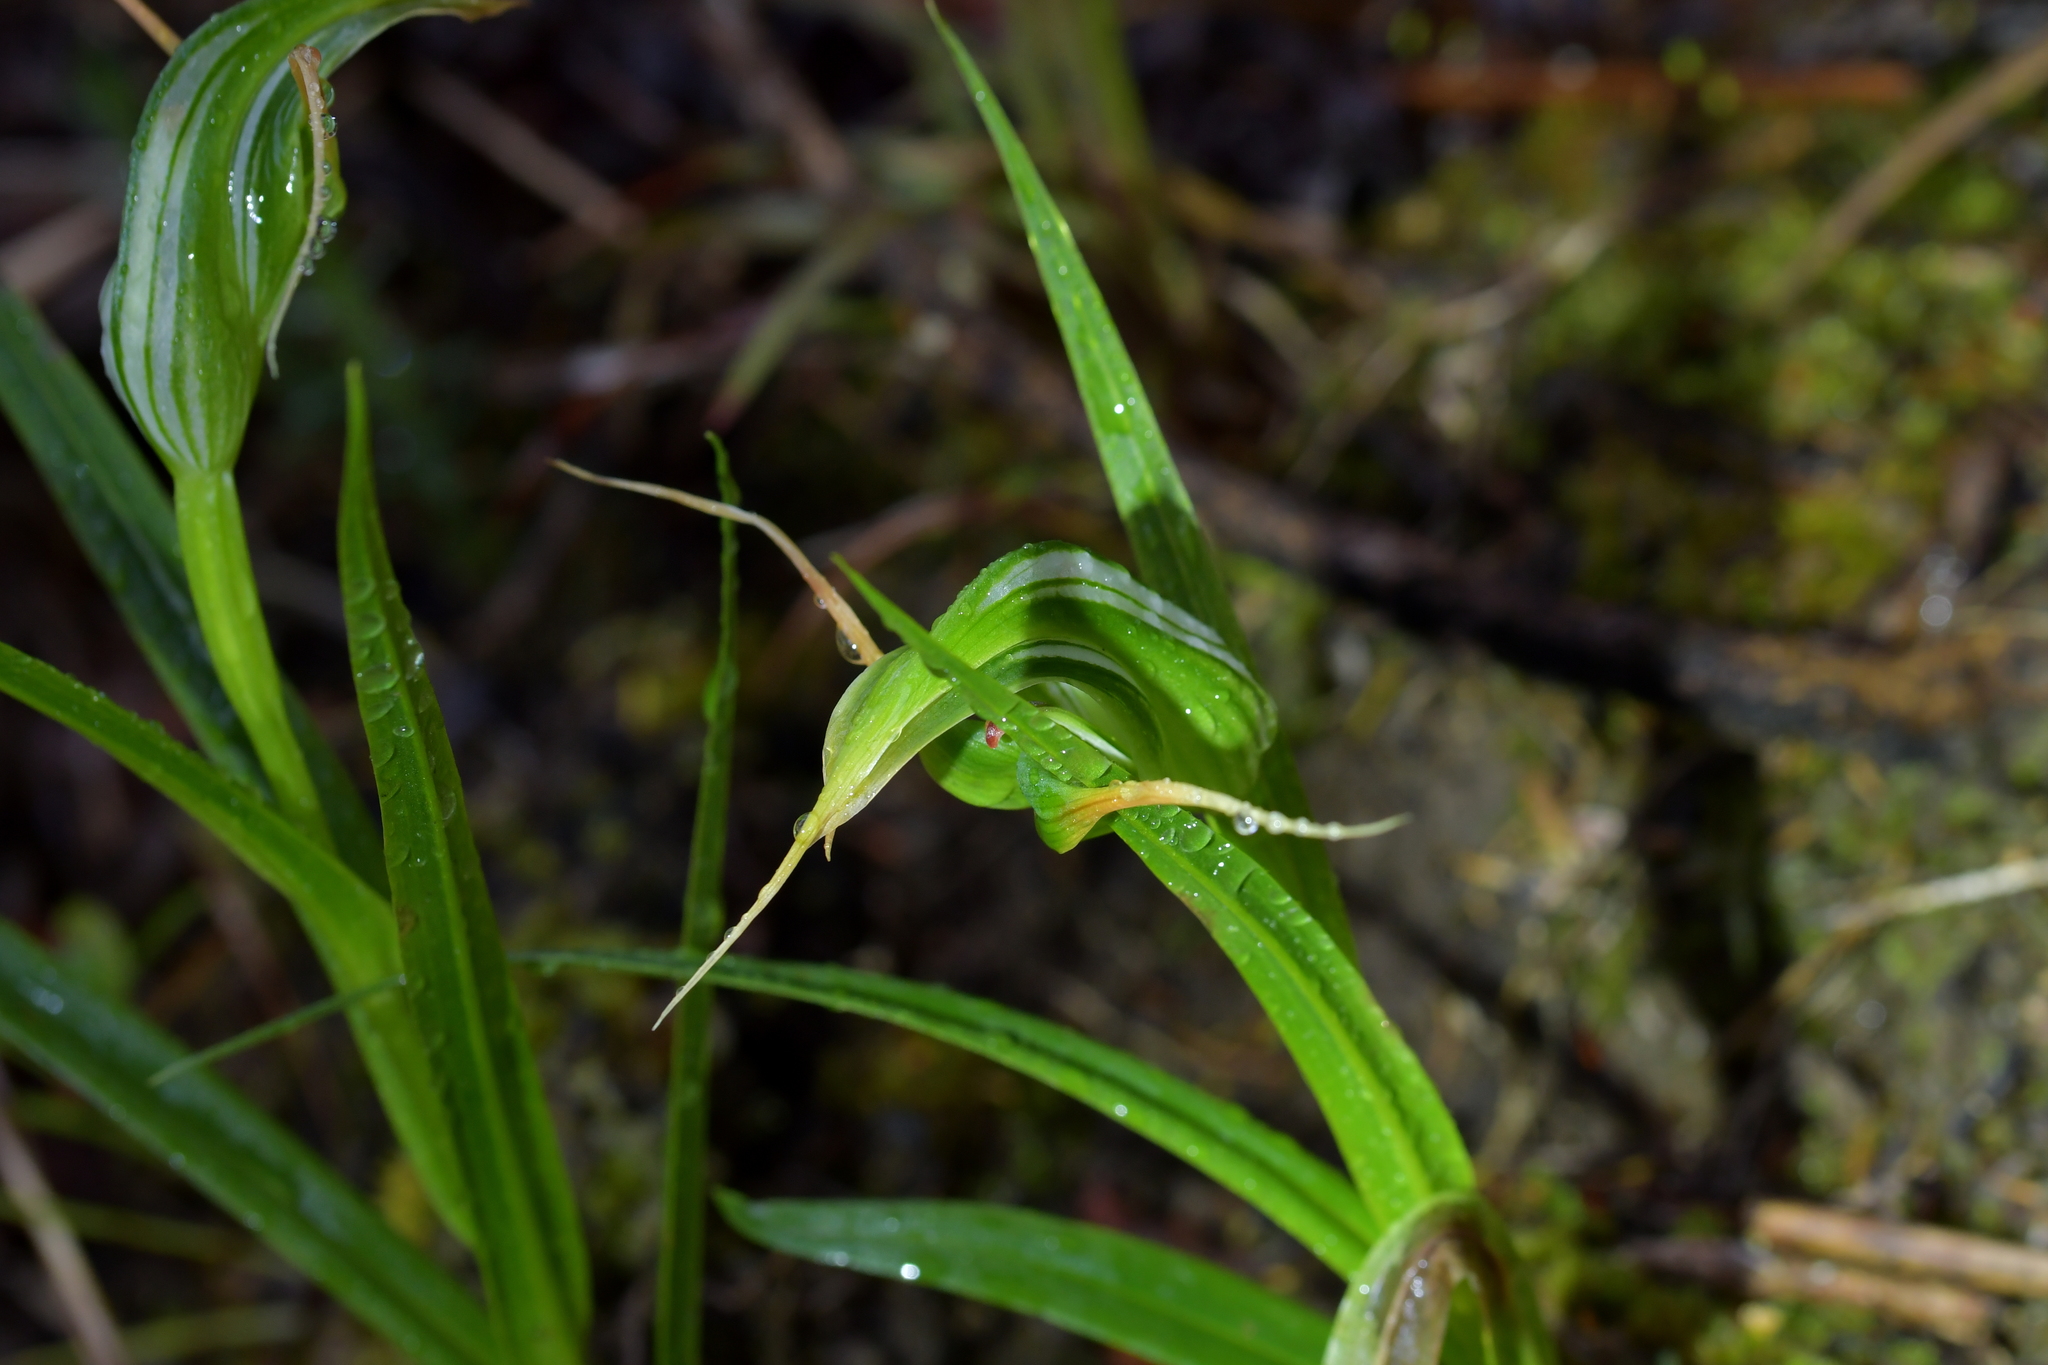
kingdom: Plantae
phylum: Tracheophyta
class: Liliopsida
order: Asparagales
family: Orchidaceae
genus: Pterostylis
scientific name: Pterostylis banksii
